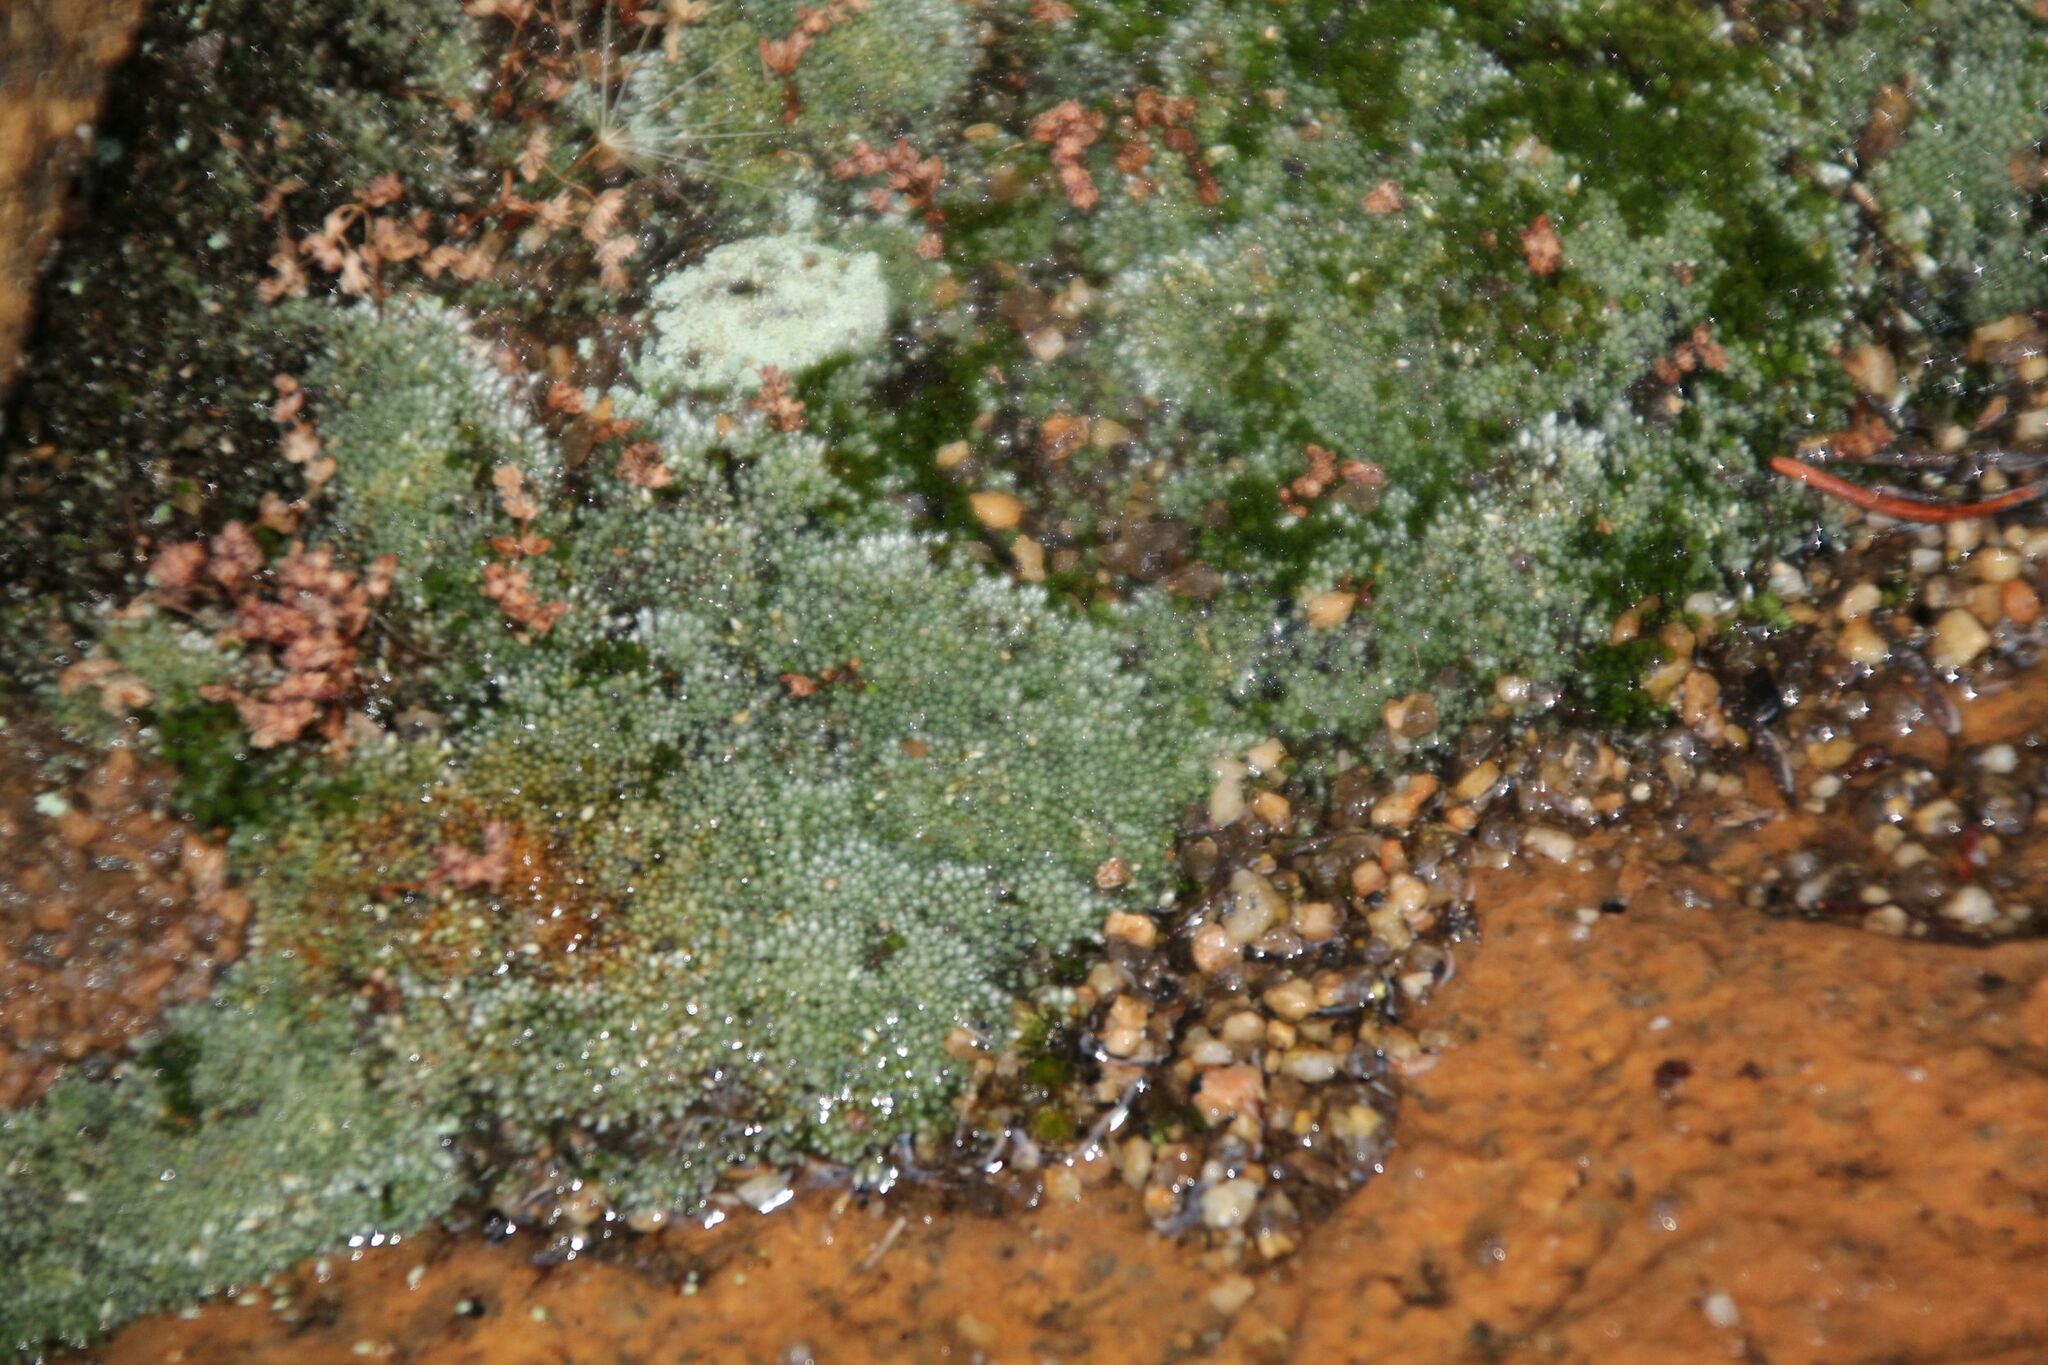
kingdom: Plantae
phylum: Bryophyta
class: Bryopsida
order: Bryales
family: Bryaceae
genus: Bryum
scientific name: Bryum argenteum
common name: Silver-moss
